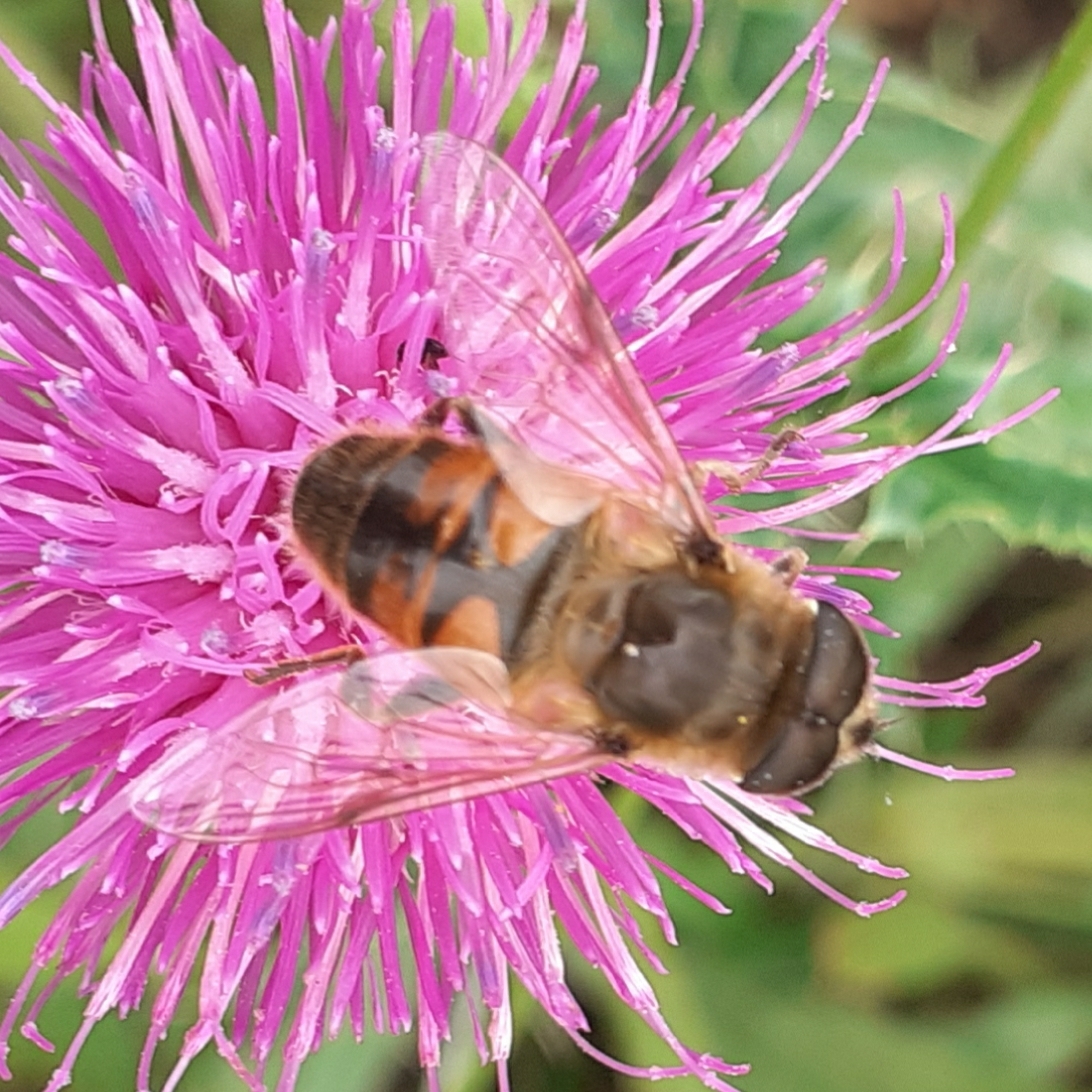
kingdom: Animalia
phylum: Arthropoda
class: Insecta
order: Diptera
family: Syrphidae
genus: Eristalis
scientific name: Eristalis tenax
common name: Drone fly
